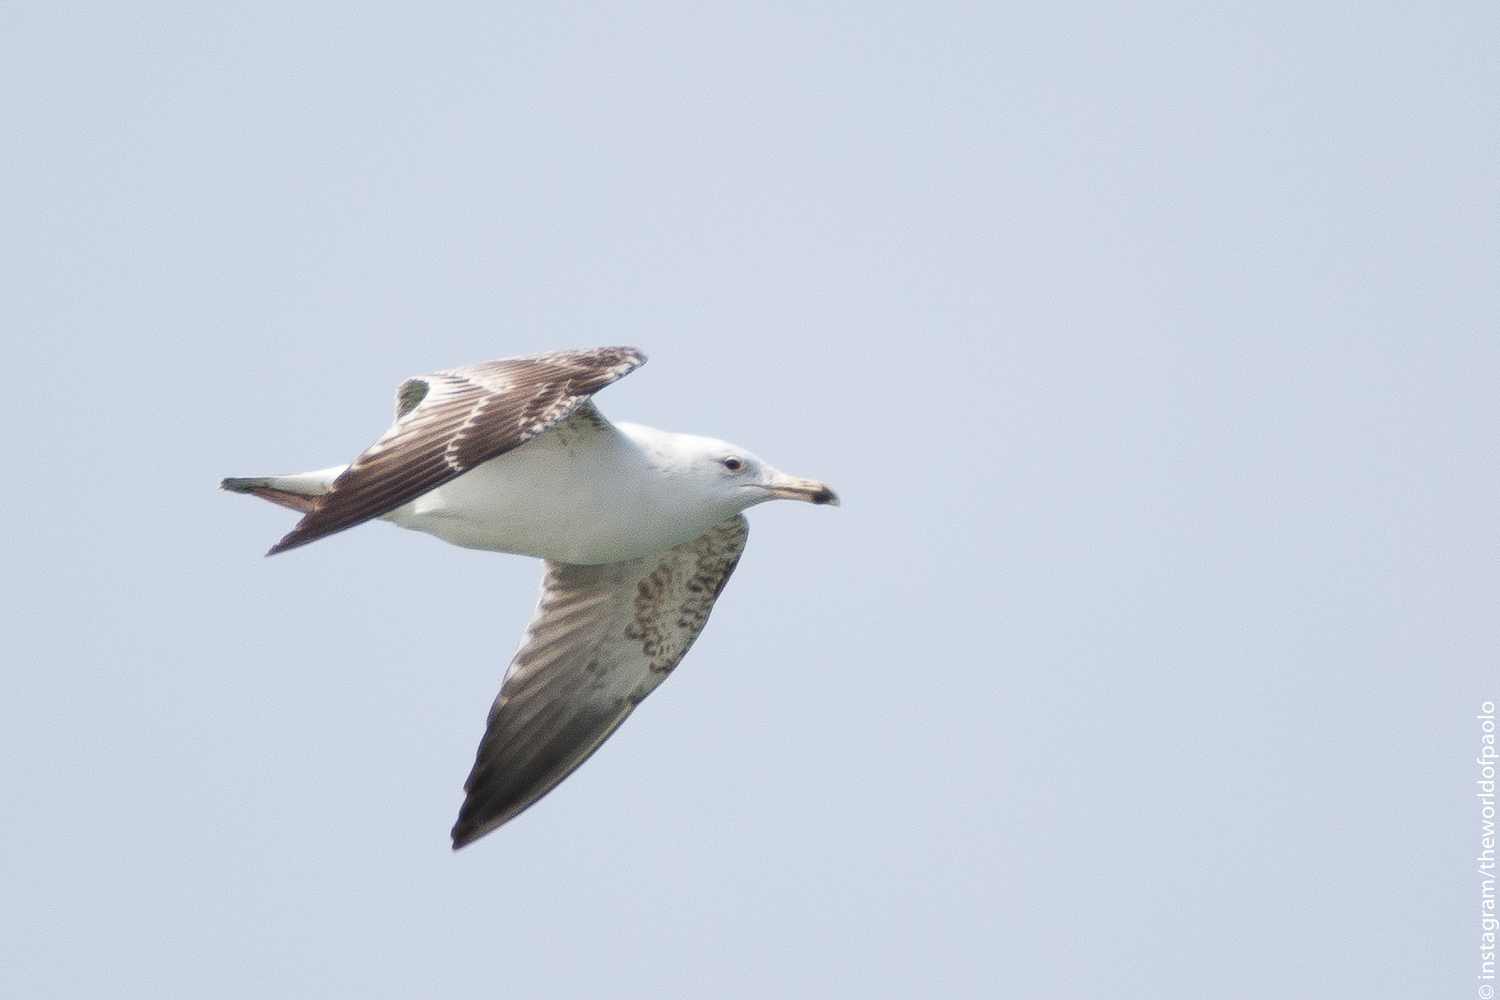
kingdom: Animalia
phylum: Chordata
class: Aves
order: Charadriiformes
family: Laridae
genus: Larus
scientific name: Larus cachinnans
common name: Caspian gull
